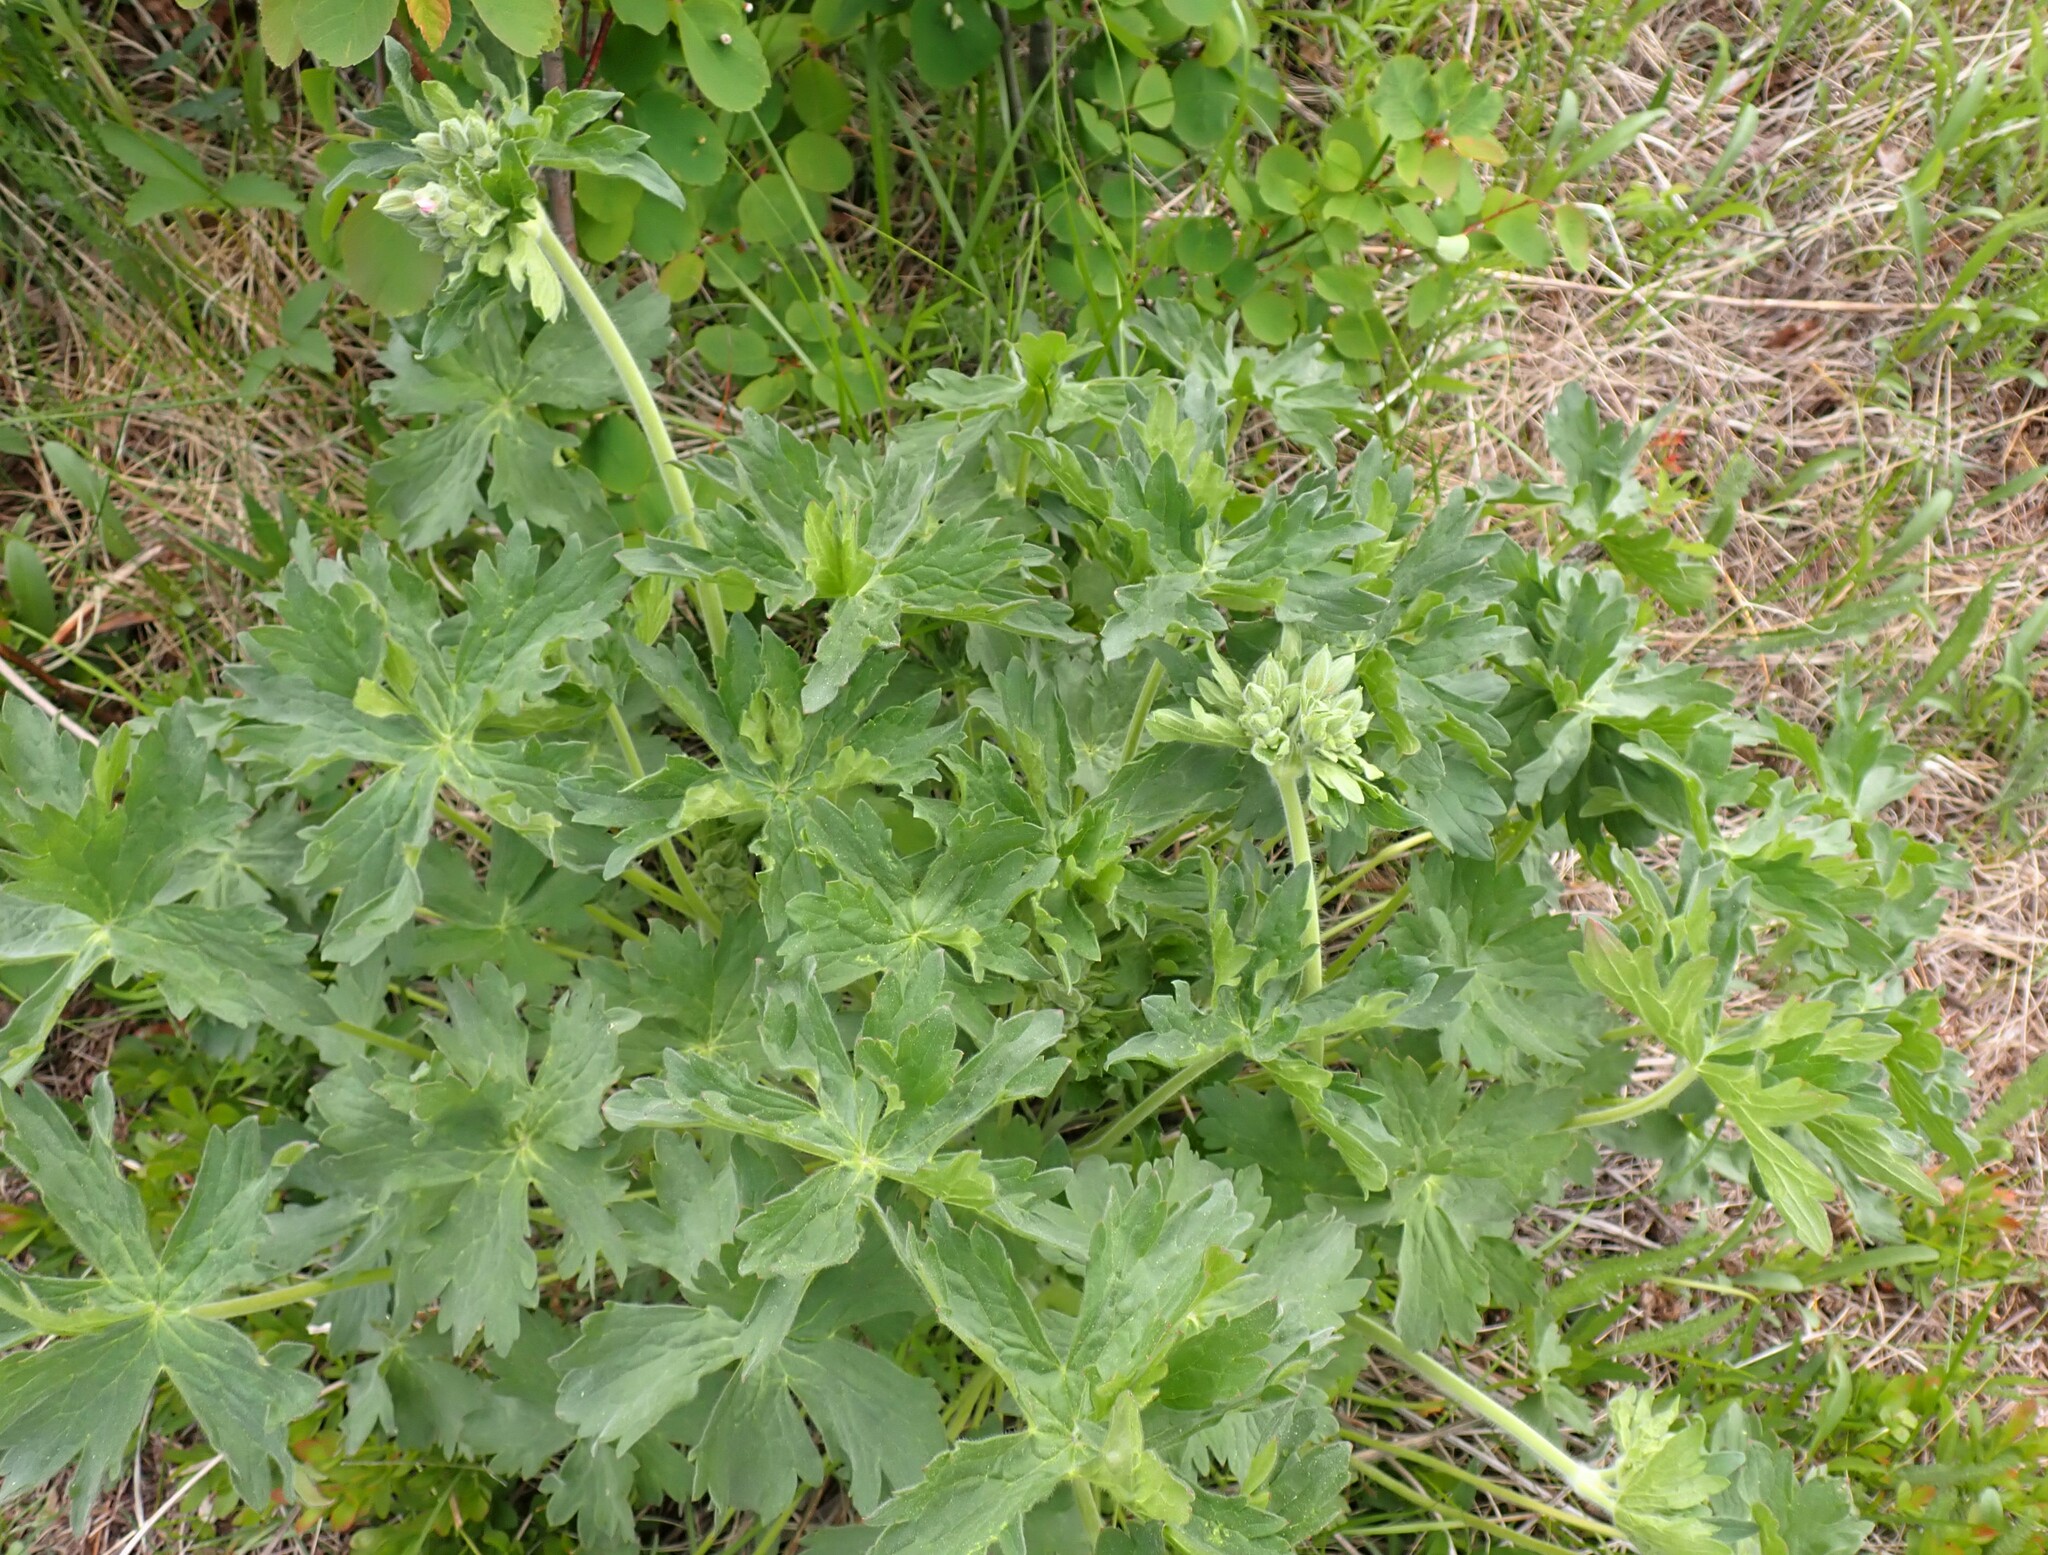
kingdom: Plantae
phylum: Tracheophyta
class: Magnoliopsida
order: Geraniales
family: Geraniaceae
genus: Geranium
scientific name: Geranium viscosissimum
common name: Purple geranium
